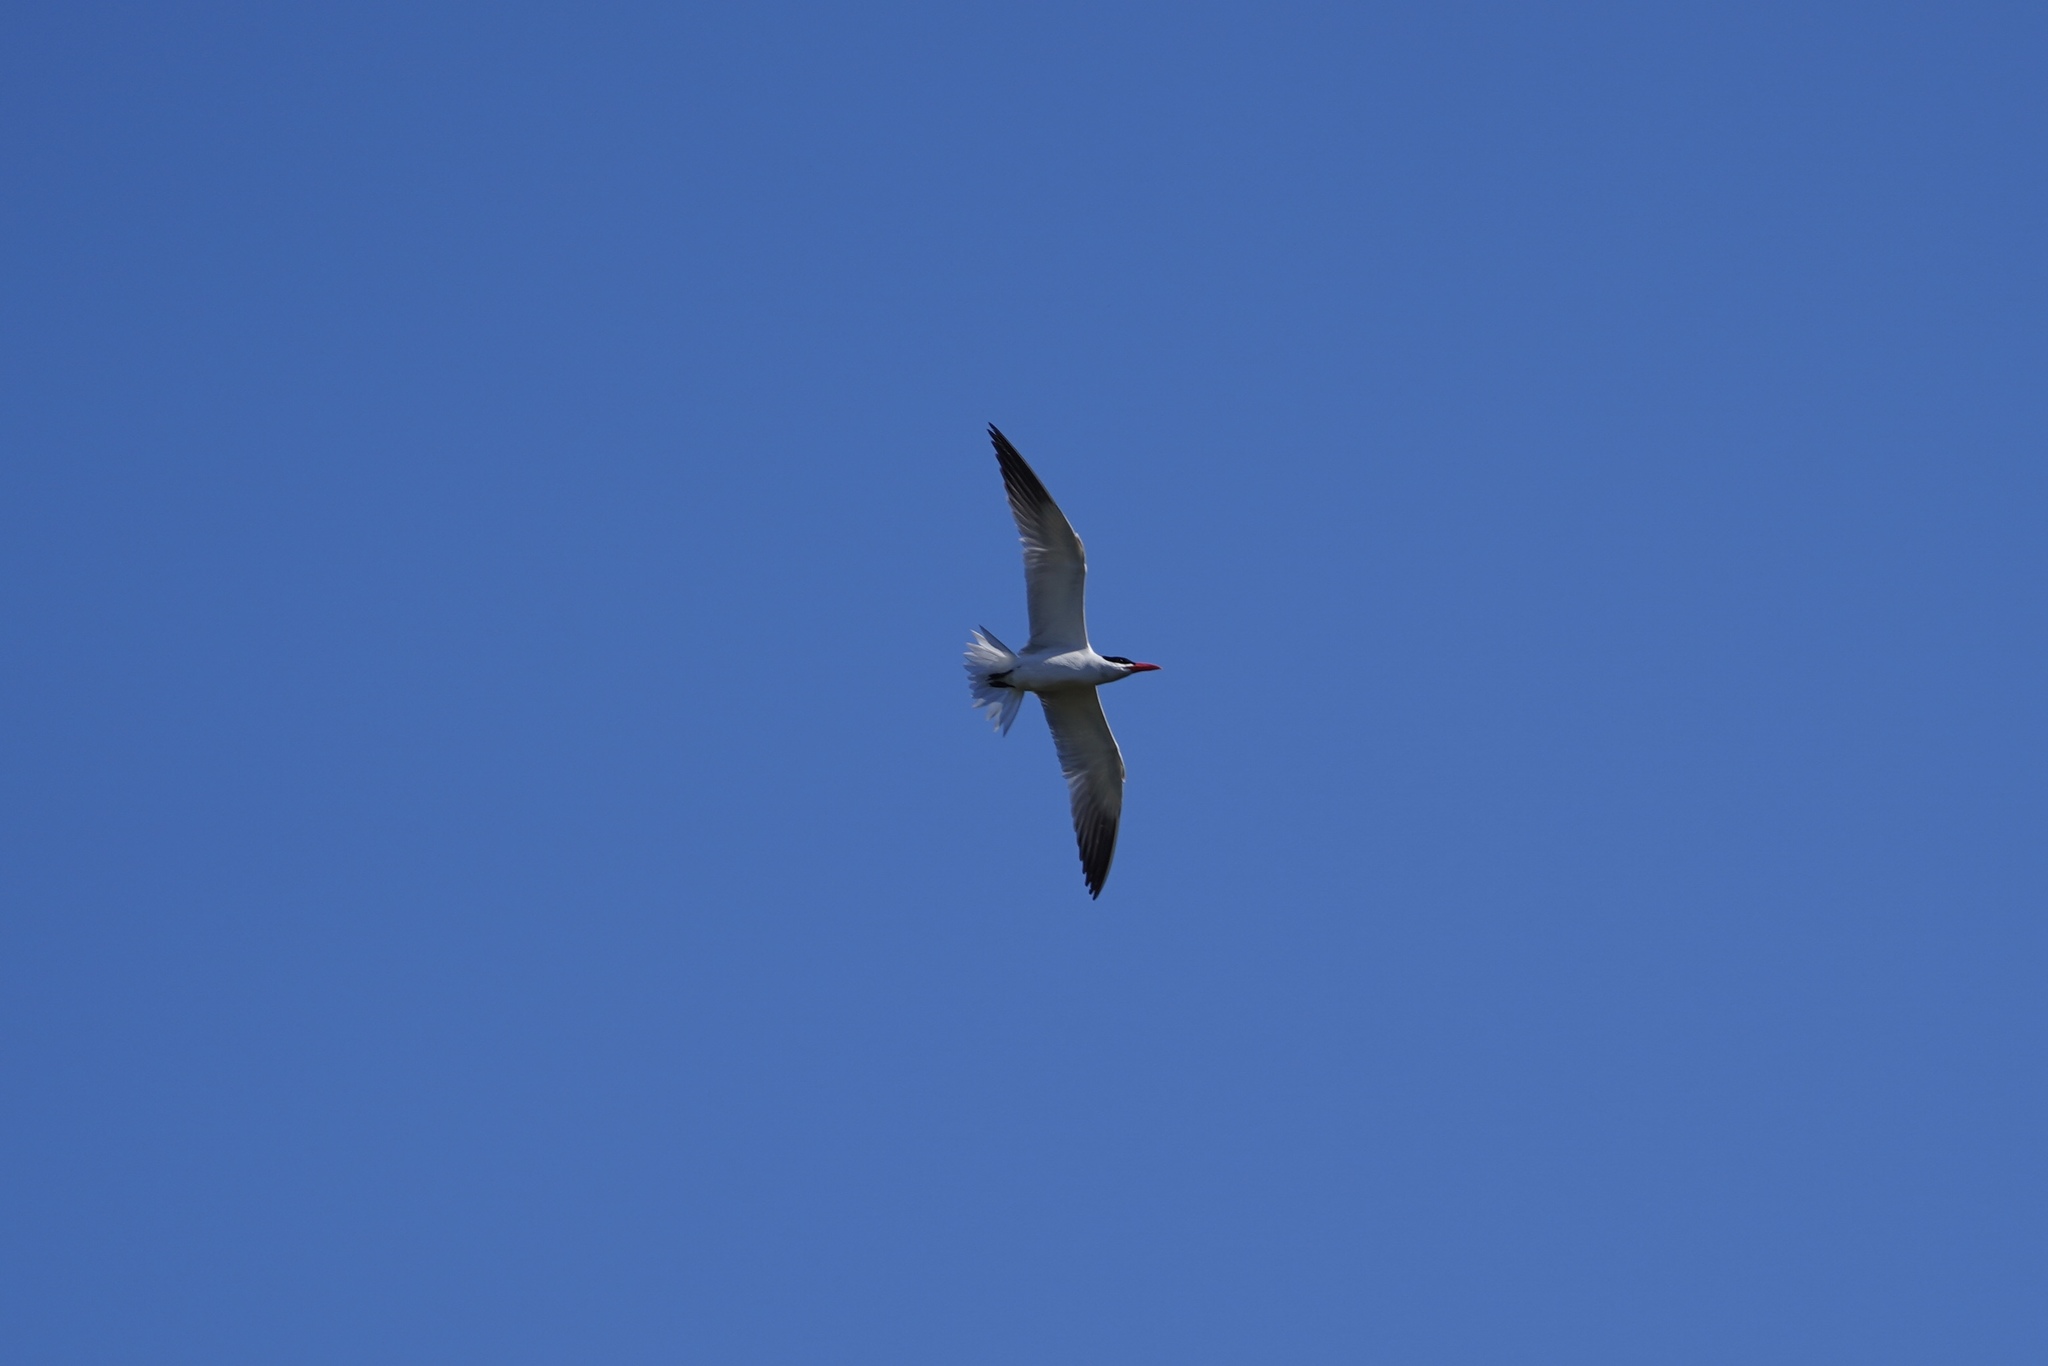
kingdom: Animalia
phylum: Chordata
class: Aves
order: Charadriiformes
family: Laridae
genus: Hydroprogne
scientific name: Hydroprogne caspia
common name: Caspian tern
